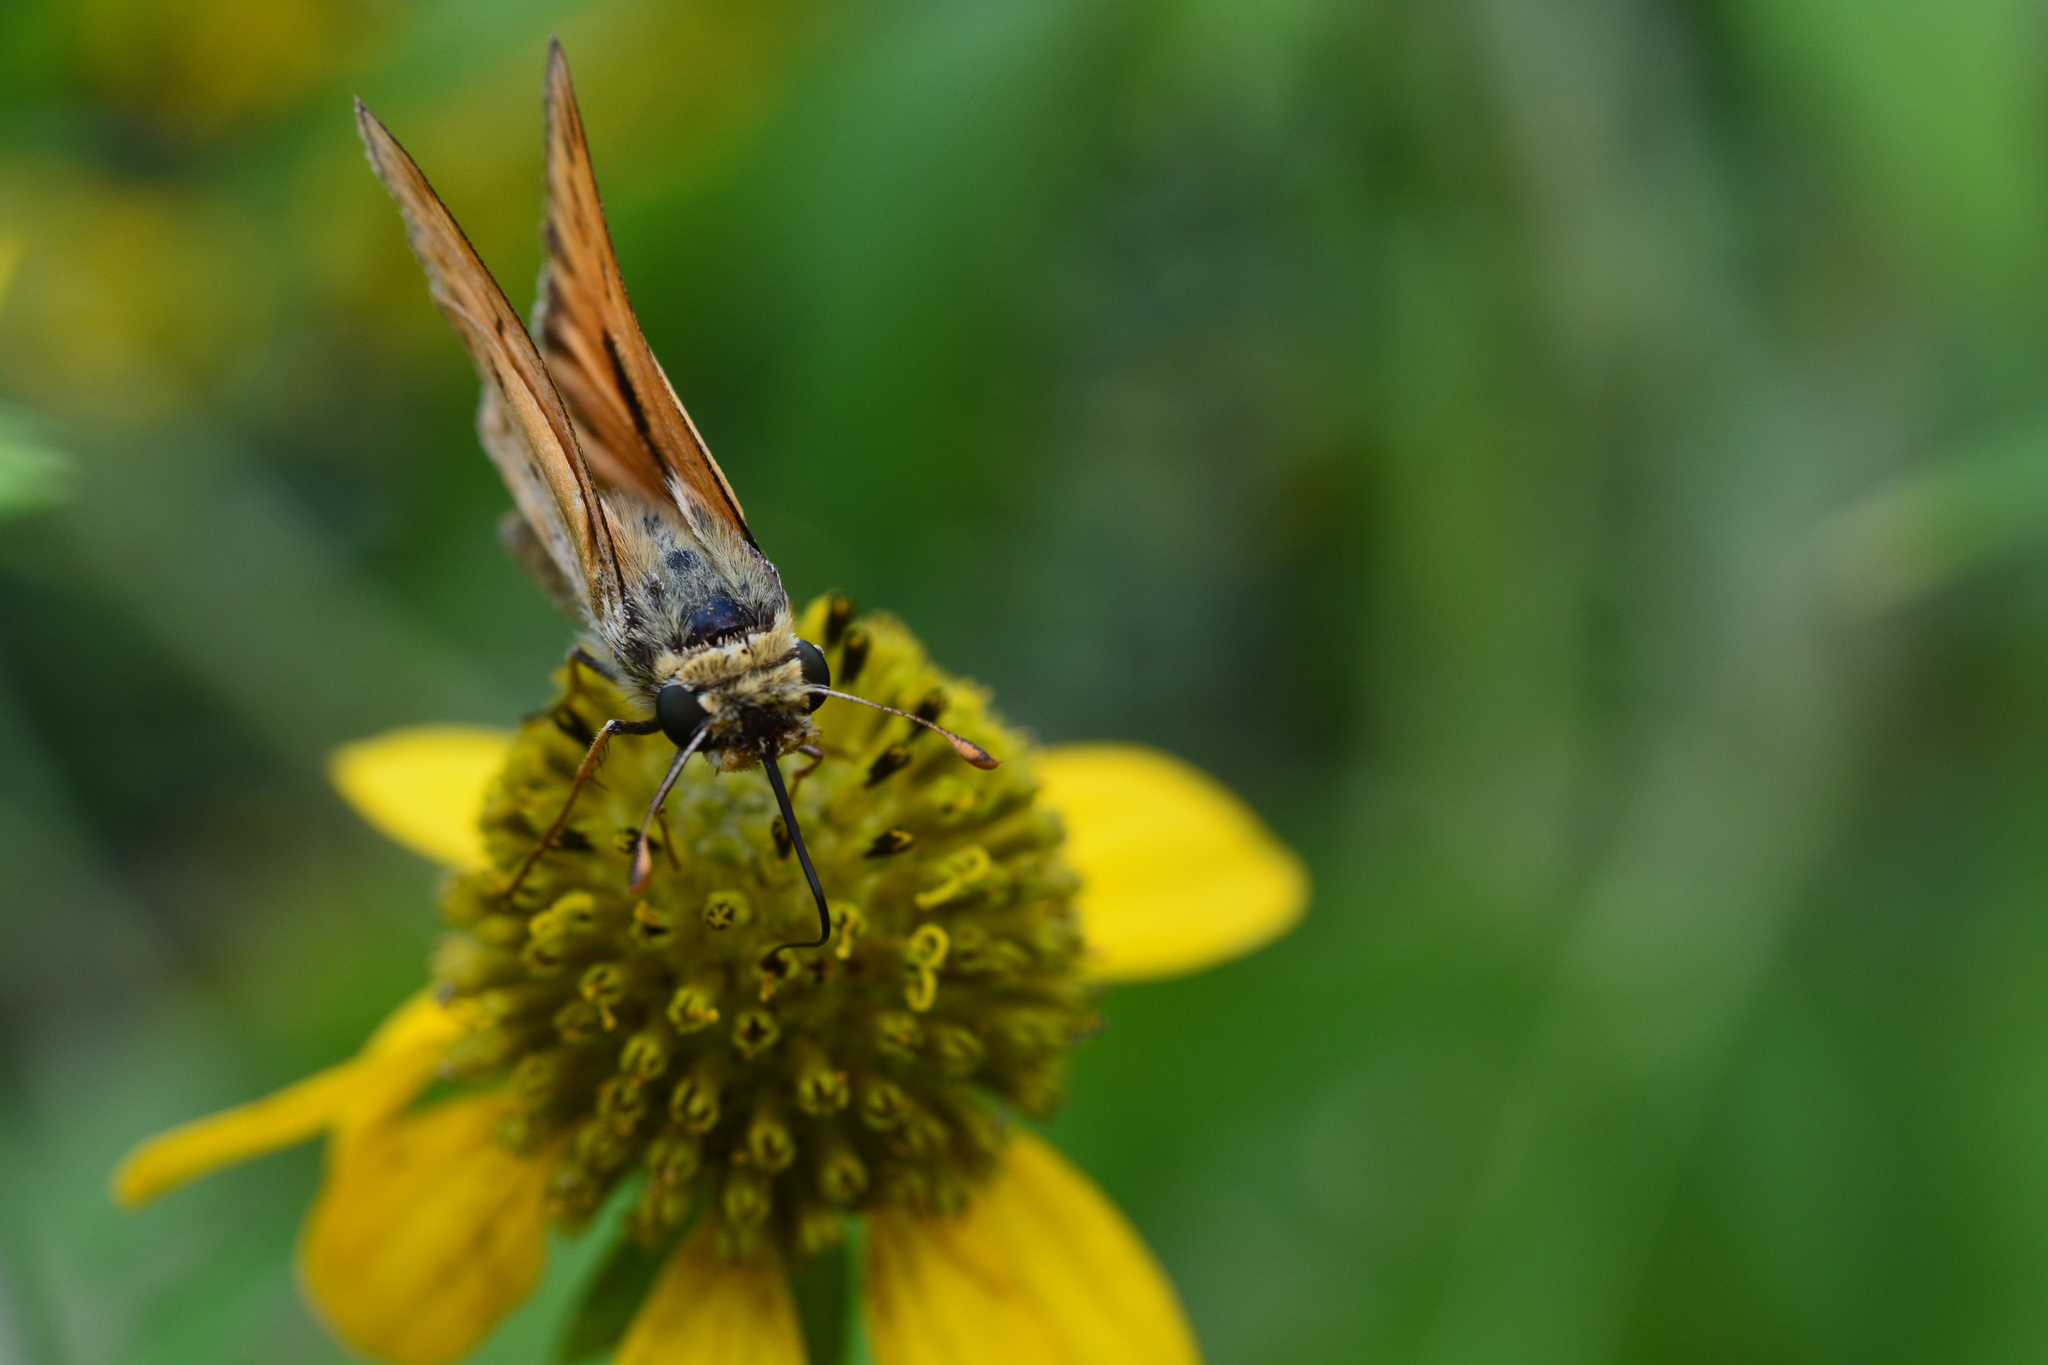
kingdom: Animalia
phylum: Arthropoda
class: Insecta
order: Lepidoptera
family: Hesperiidae
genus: Hylephila
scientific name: Hylephila phyleus
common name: Fiery skipper
